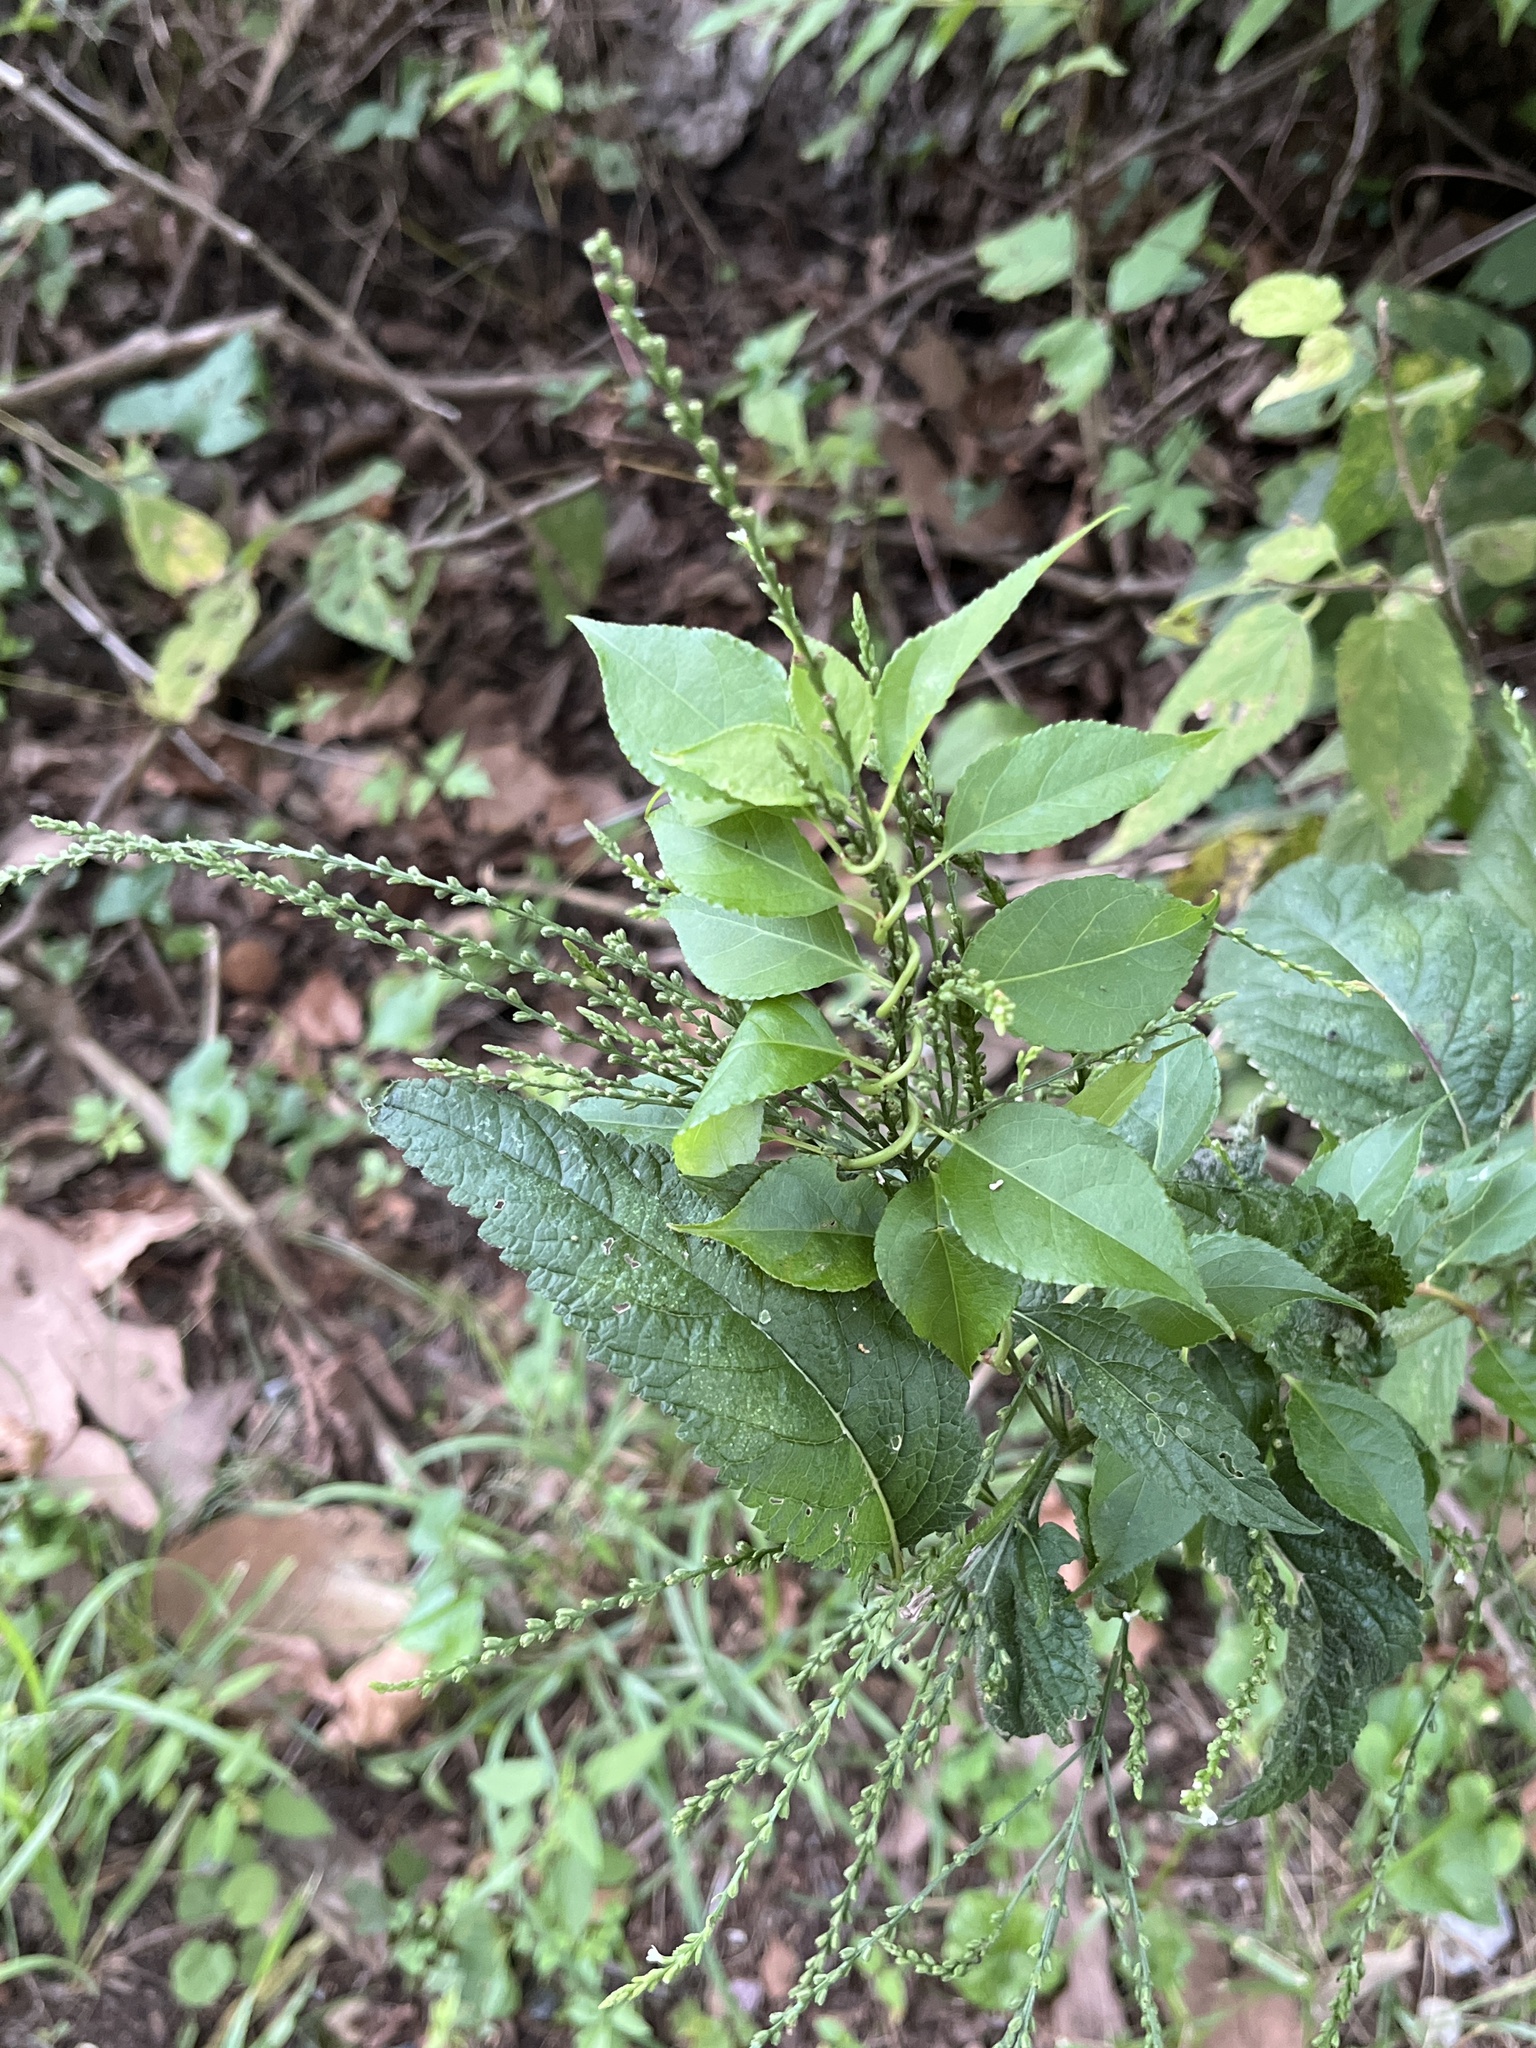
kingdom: Plantae
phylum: Tracheophyta
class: Magnoliopsida
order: Lamiales
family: Verbenaceae
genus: Verbena
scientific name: Verbena urticifolia
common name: Nettle-leaved vervain
